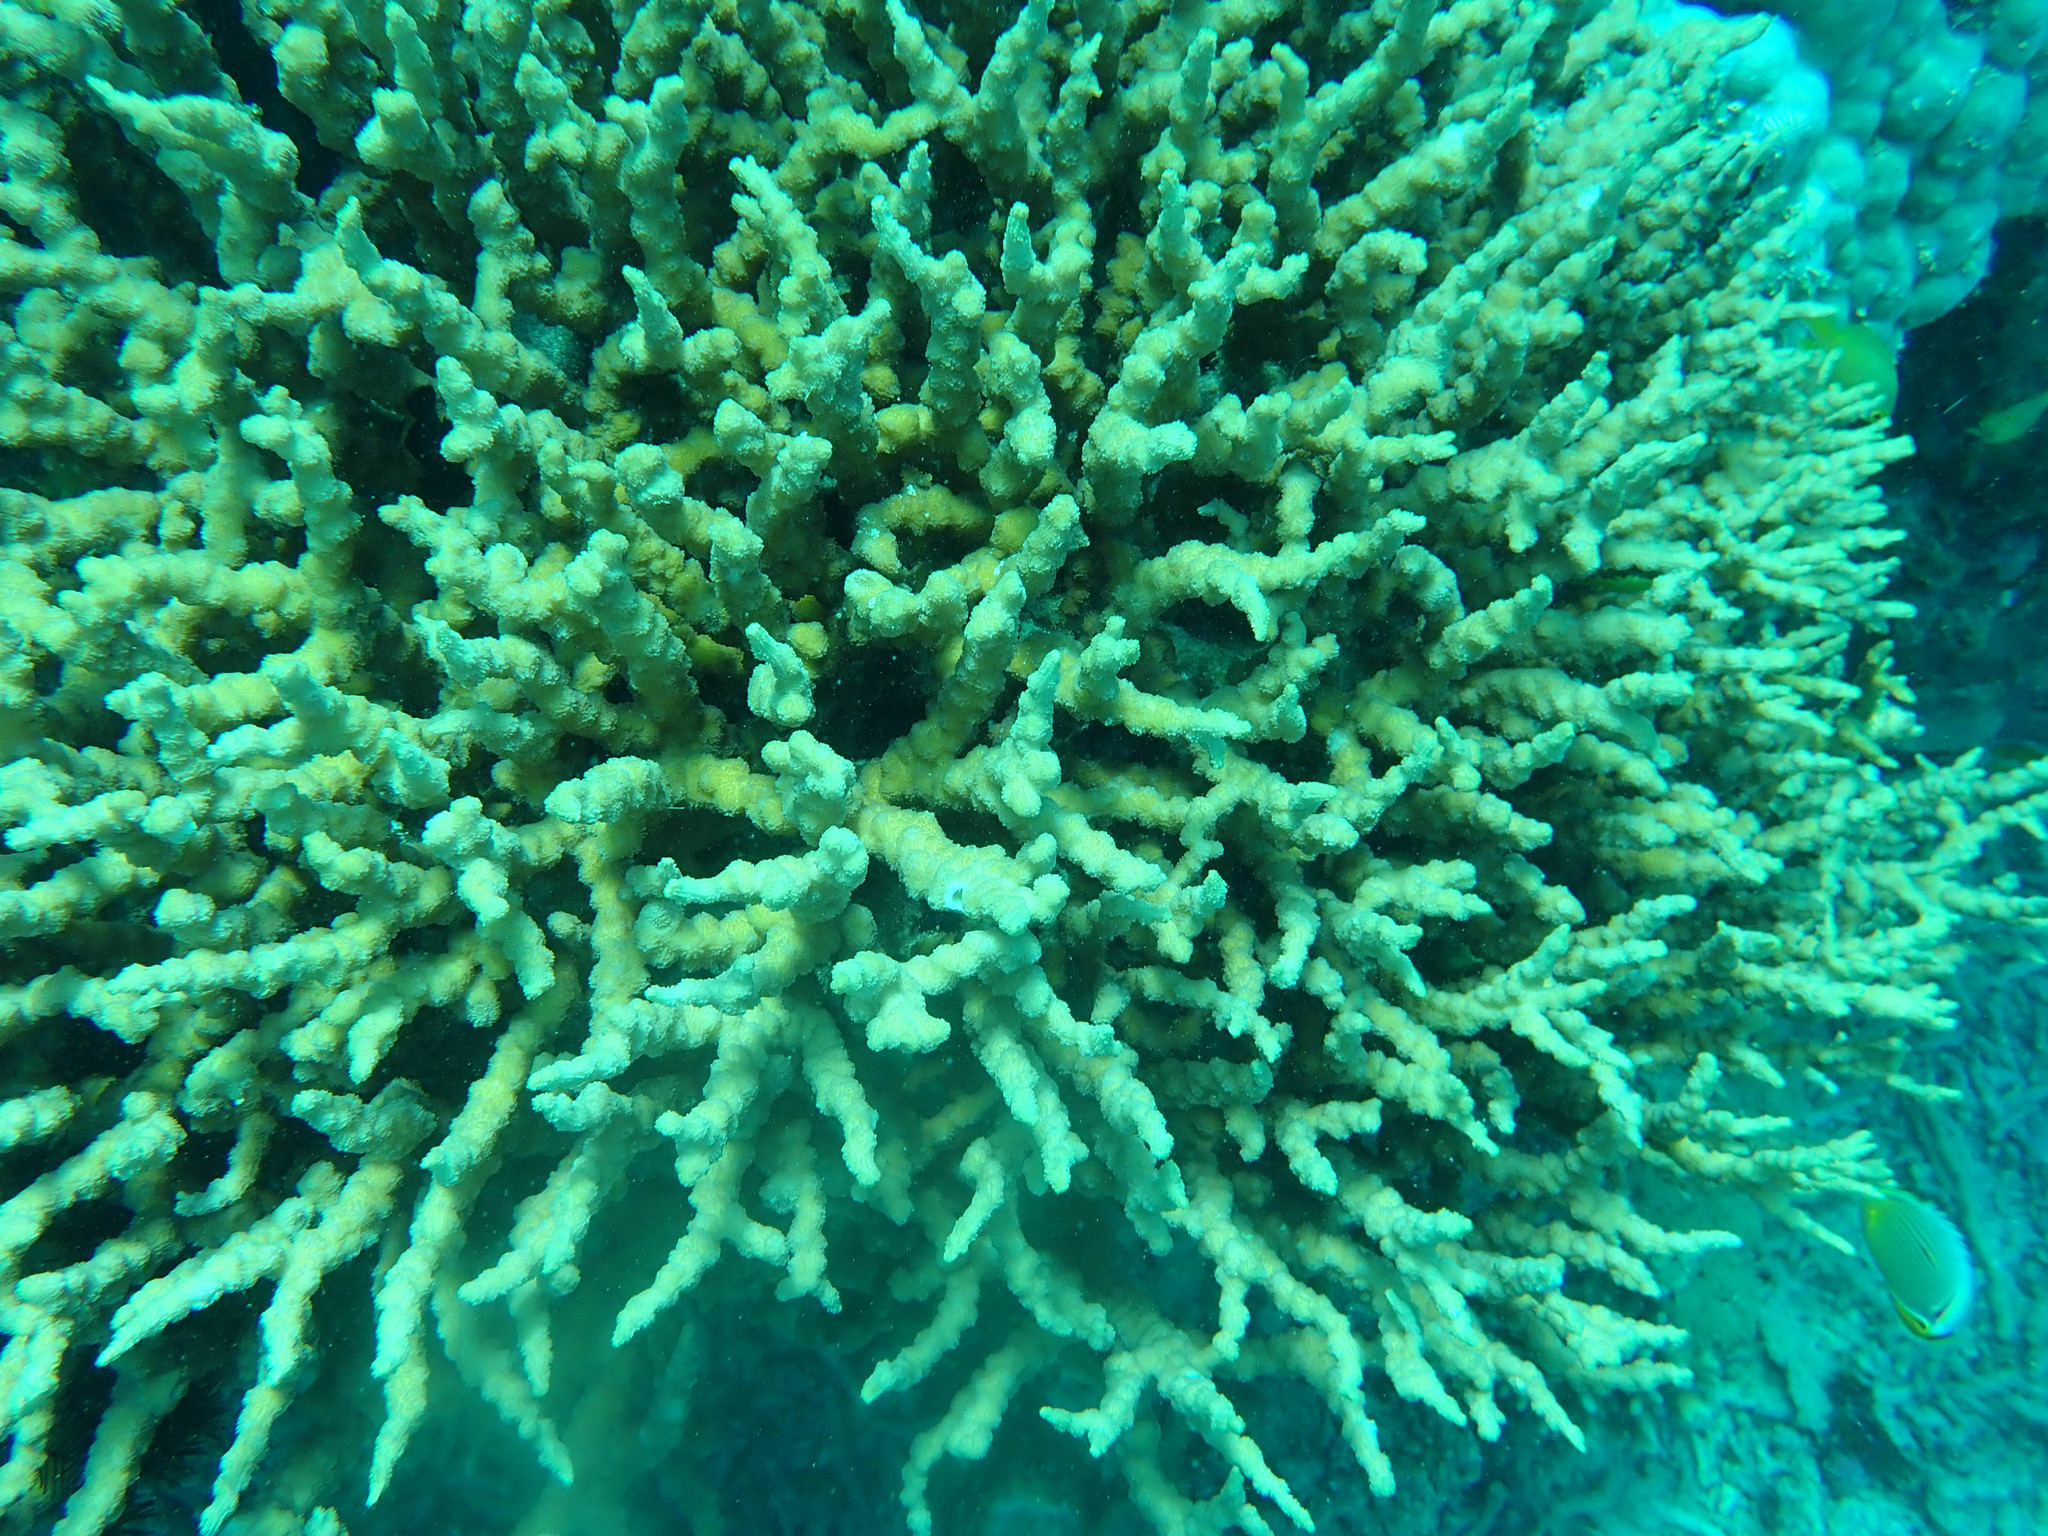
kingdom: Animalia
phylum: Cnidaria
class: Anthozoa
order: Scleractinia
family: Merulinidae
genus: Echinopora
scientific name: Echinopora horrida
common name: Hedgehog coral
